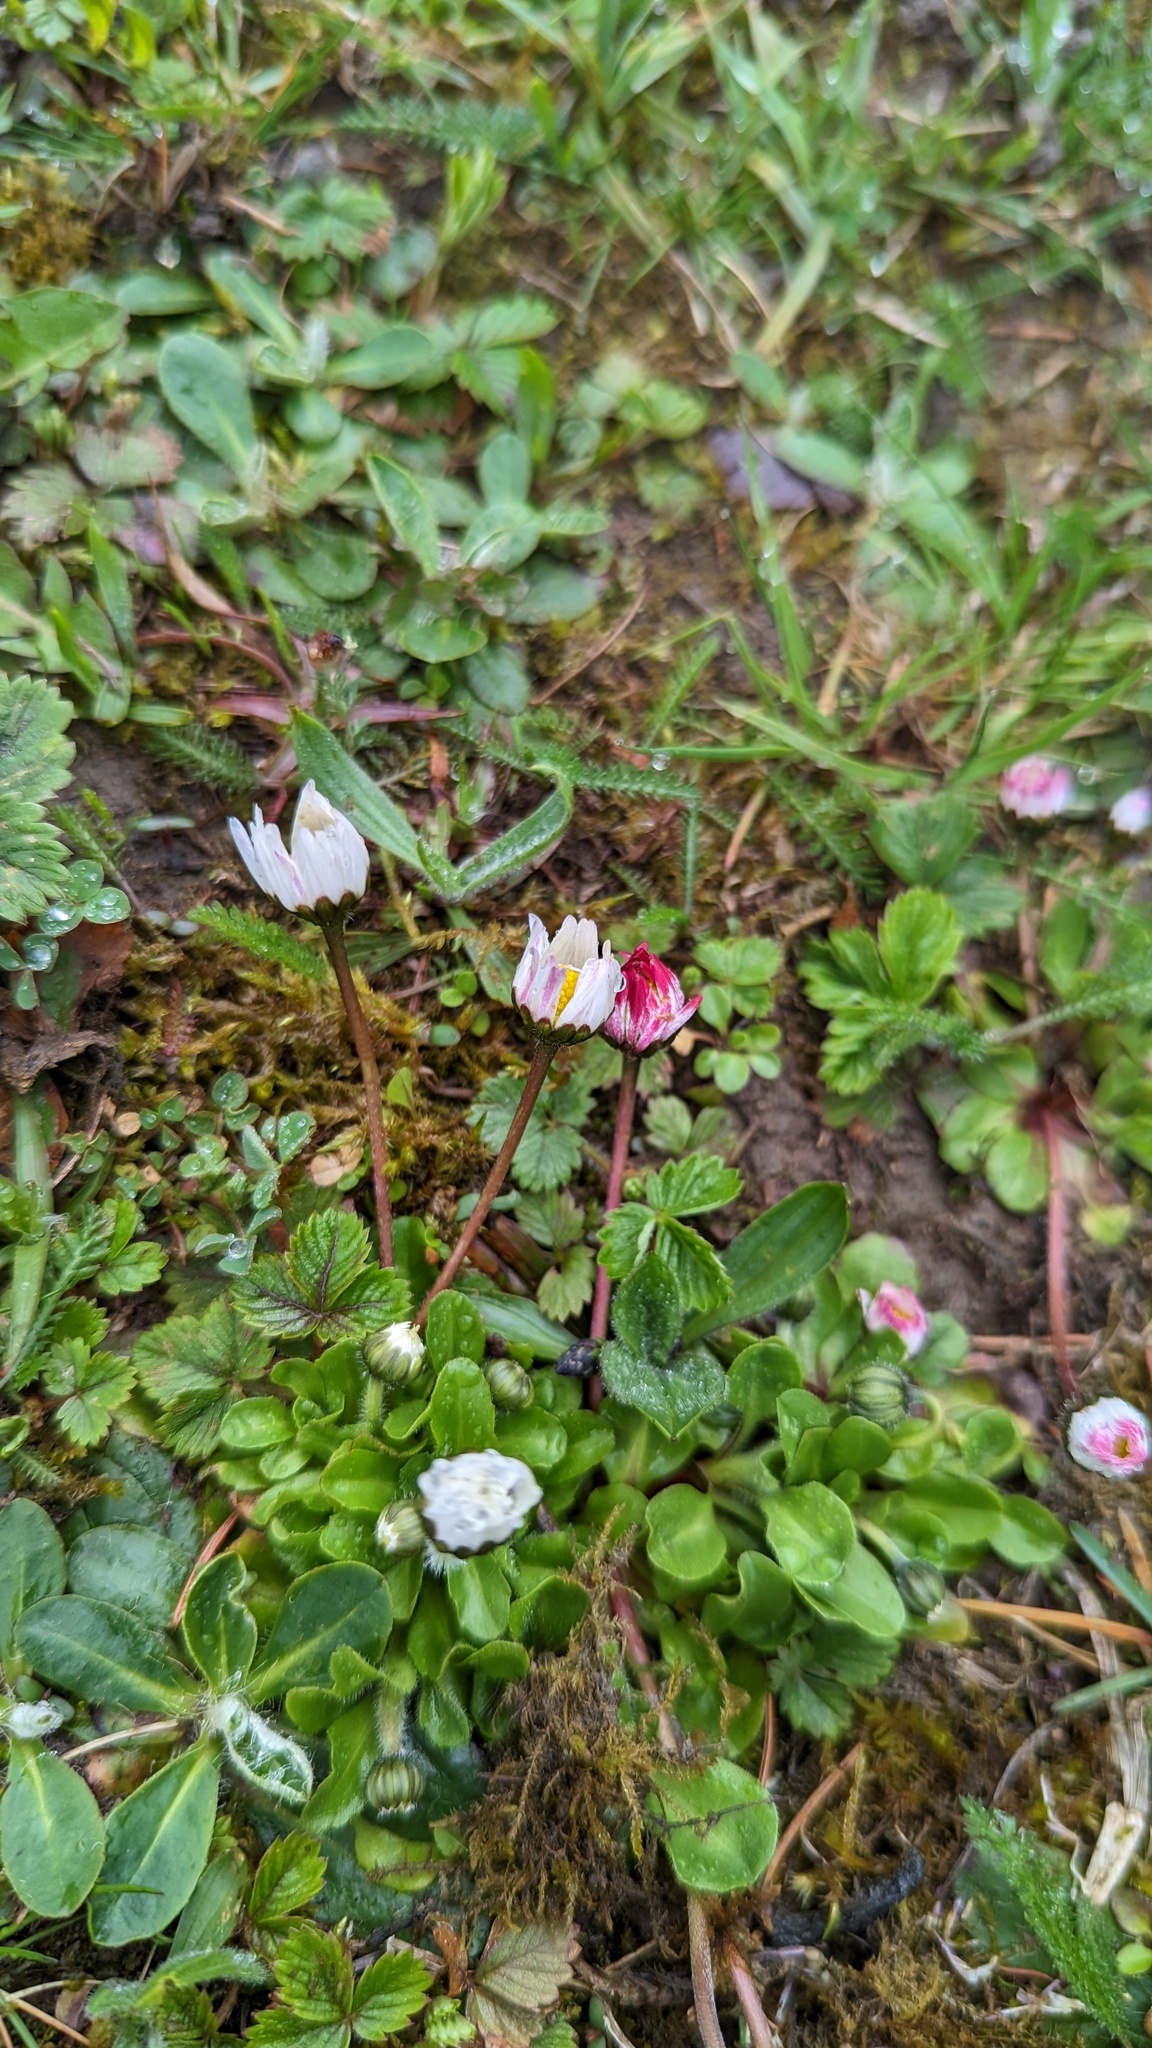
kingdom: Plantae
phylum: Tracheophyta
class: Magnoliopsida
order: Asterales
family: Asteraceae
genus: Bellis
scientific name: Bellis perennis
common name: Lawndaisy
